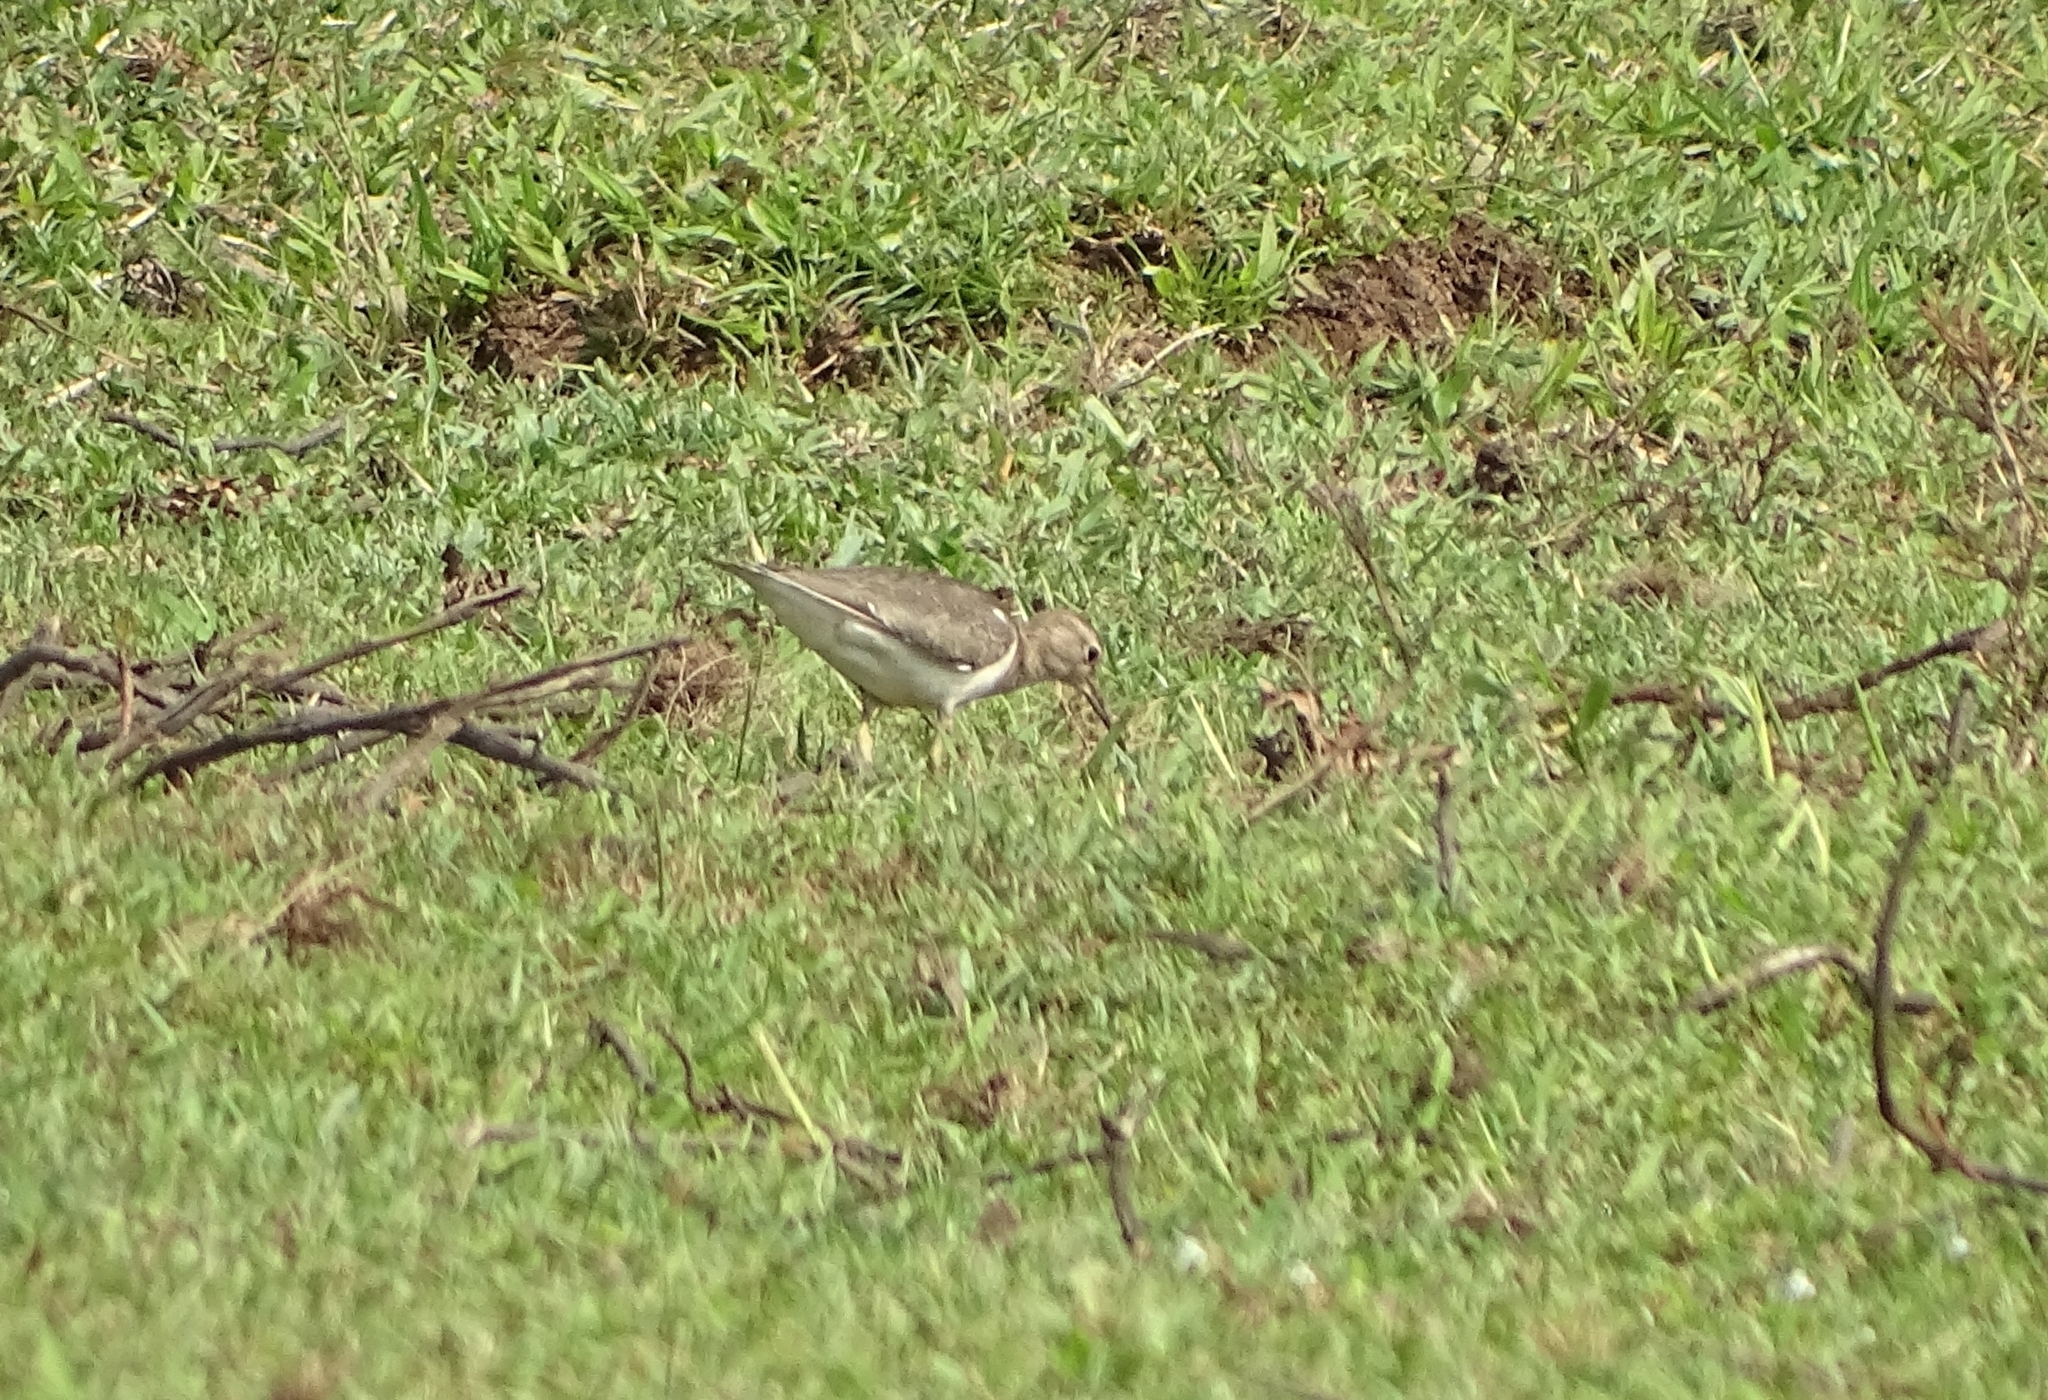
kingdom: Animalia
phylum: Chordata
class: Aves
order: Charadriiformes
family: Scolopacidae
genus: Actitis
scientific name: Actitis hypoleucos
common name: Common sandpiper
